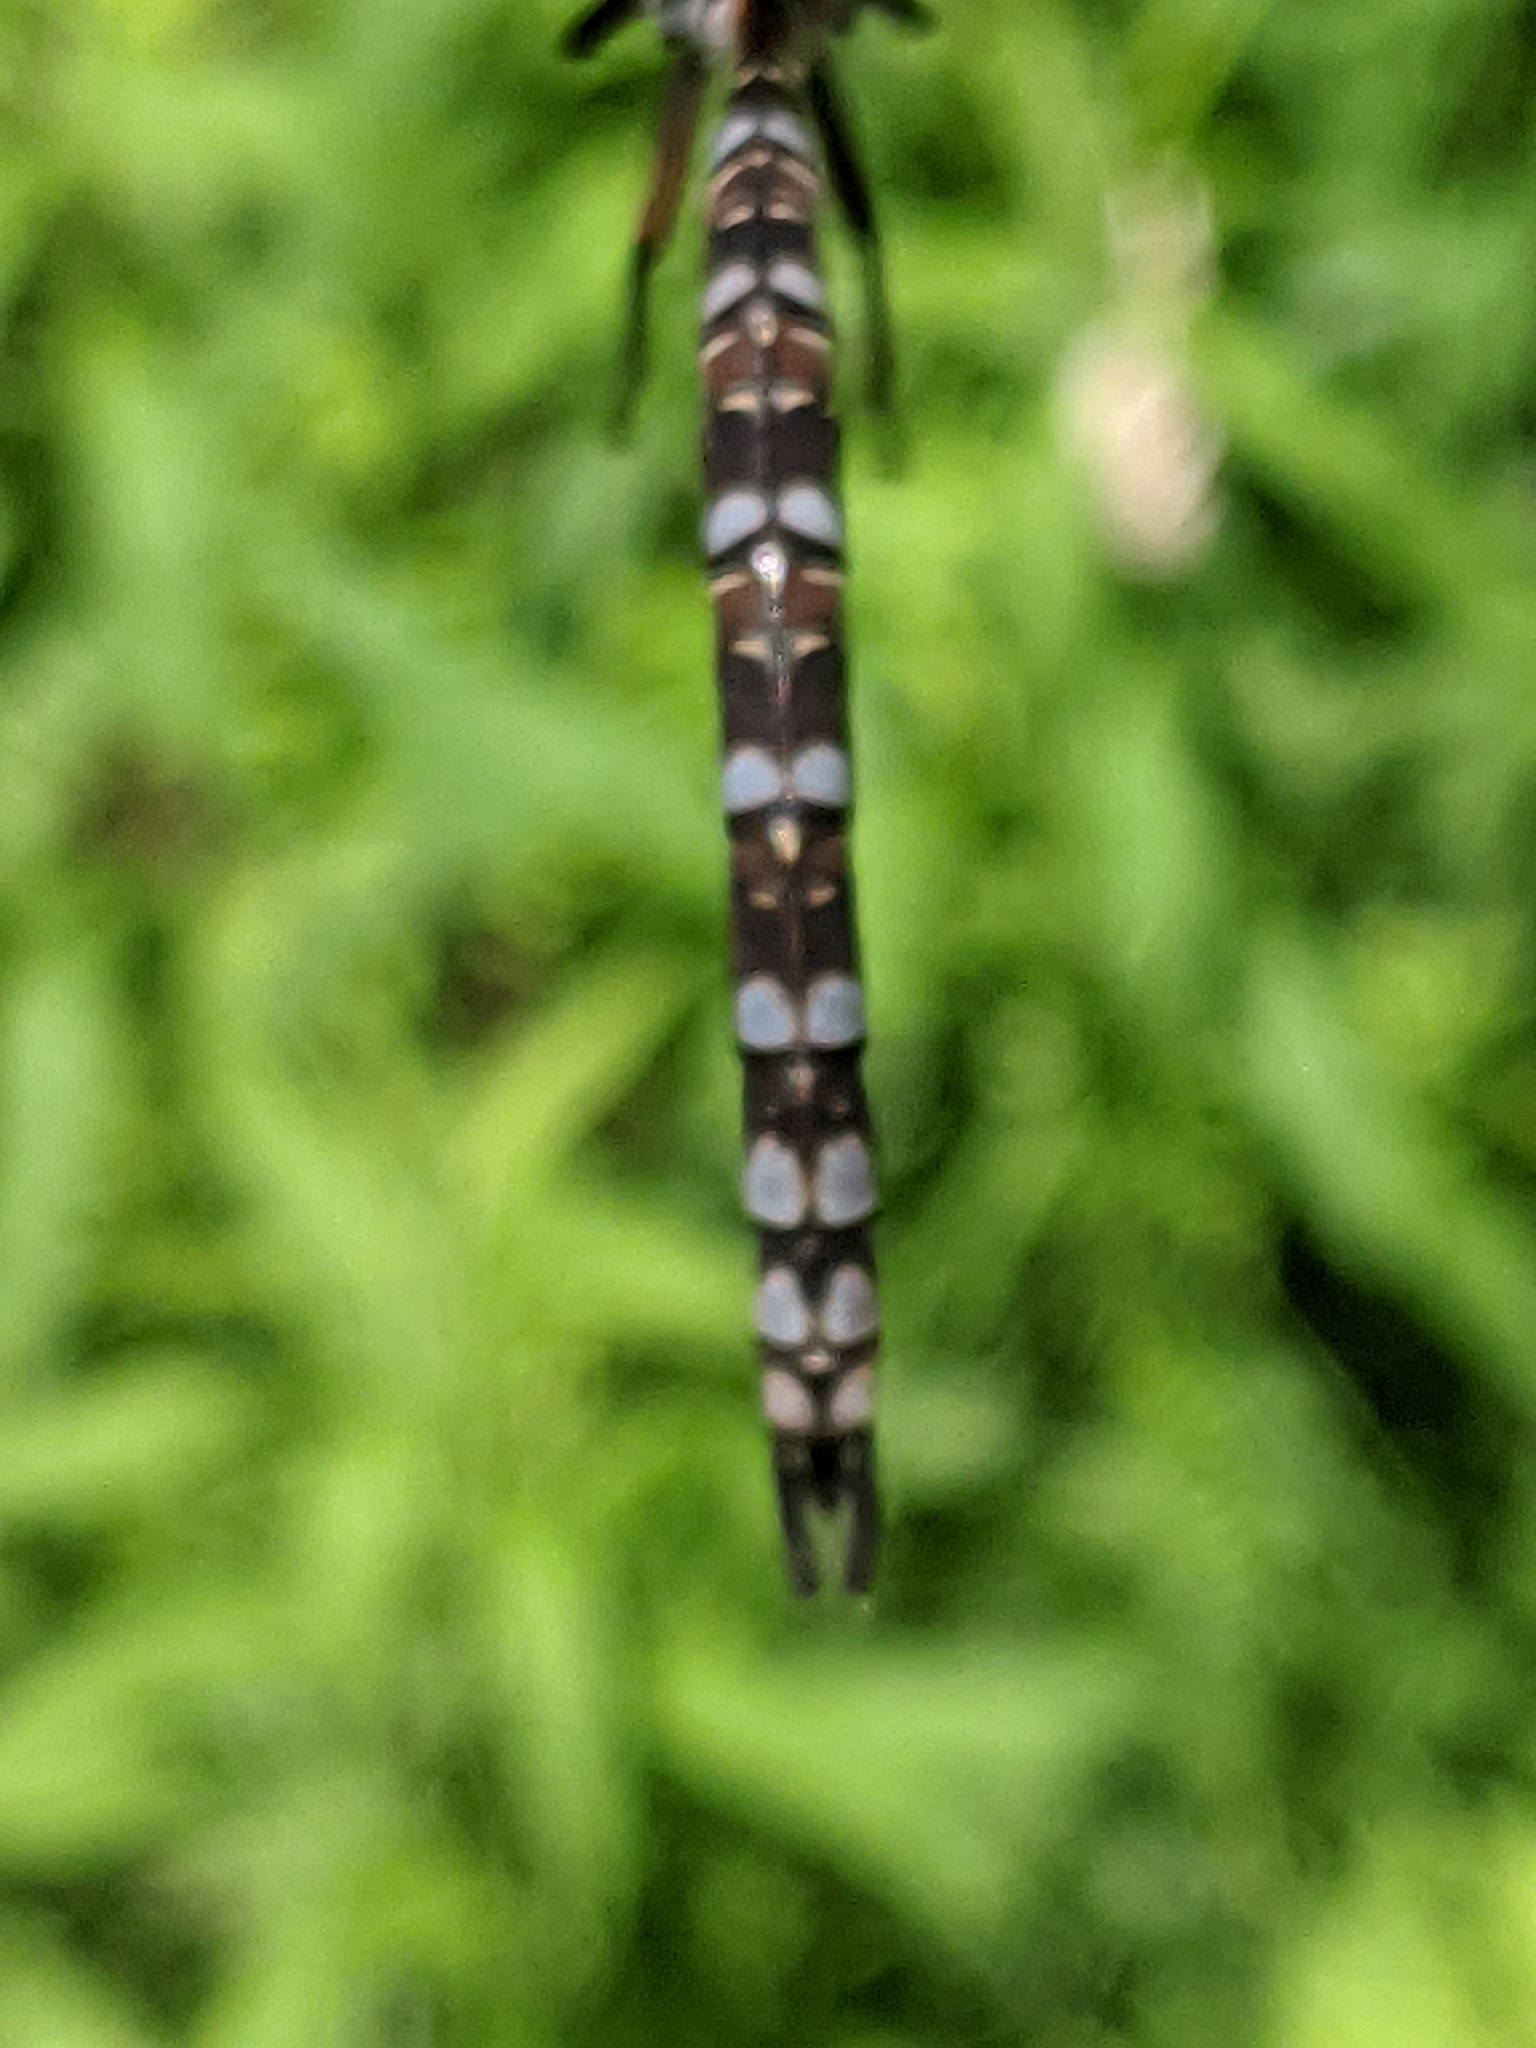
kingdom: Animalia
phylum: Arthropoda
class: Insecta
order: Odonata
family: Aeshnidae
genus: Aeshna
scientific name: Aeshna canadensis
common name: Canada darner
